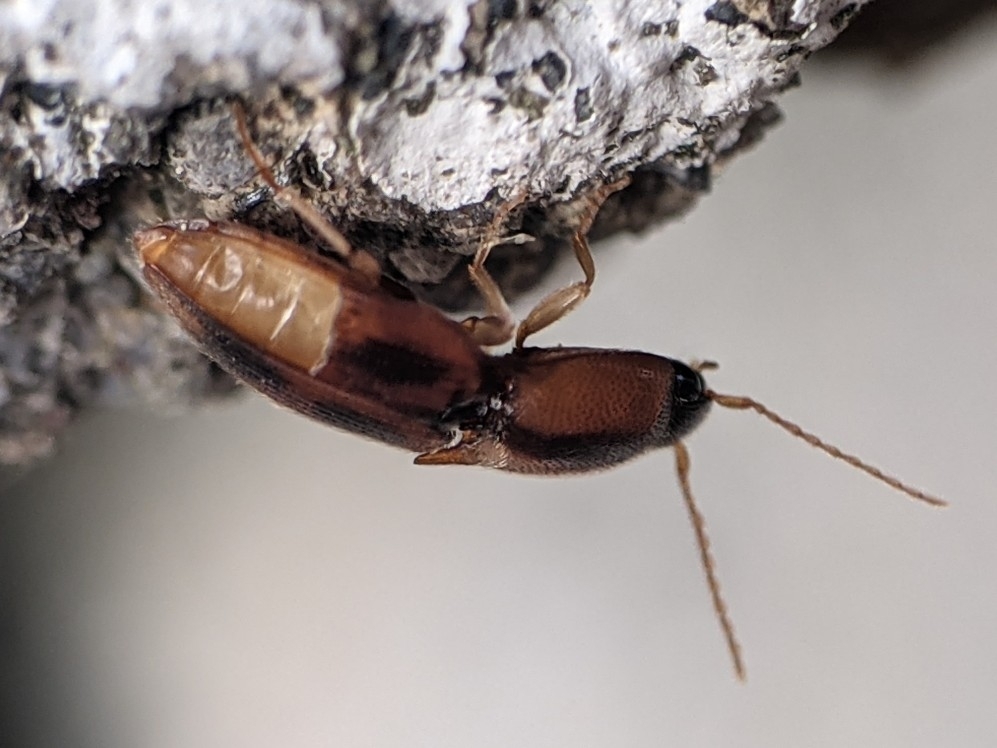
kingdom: Animalia
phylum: Arthropoda
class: Insecta
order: Coleoptera
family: Elateridae
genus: Aeolus
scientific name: Aeolus mellillus
